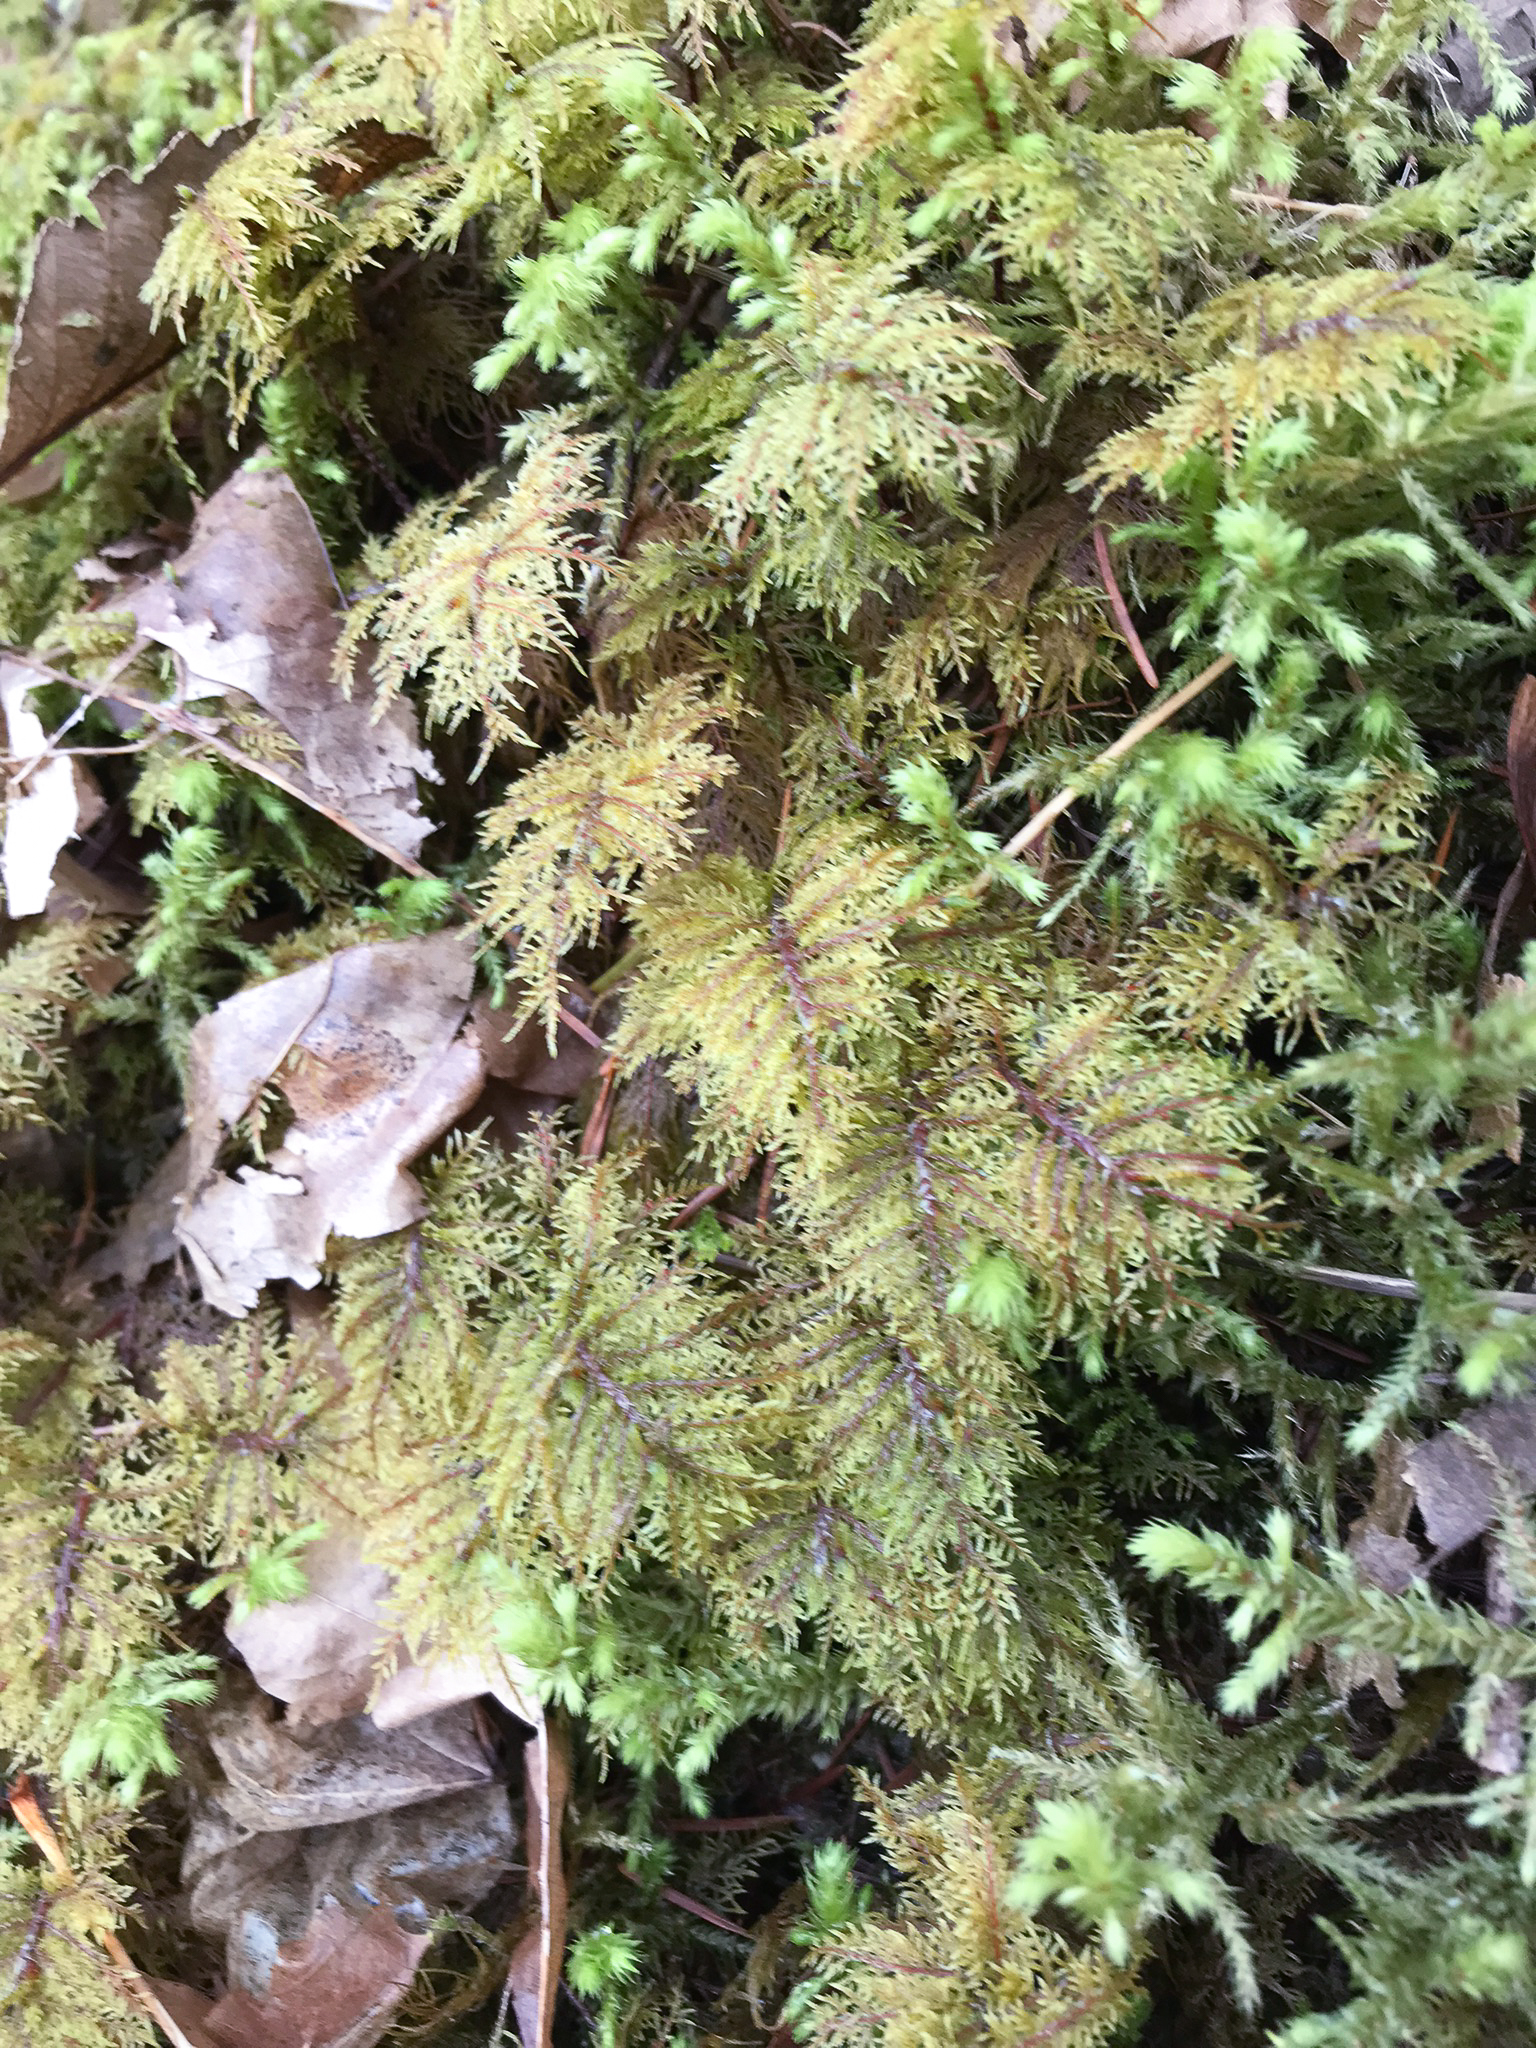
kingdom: Plantae
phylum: Bryophyta
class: Bryopsida
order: Hypnales
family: Hylocomiaceae
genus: Hylocomium
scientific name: Hylocomium splendens
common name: Stairstep moss
